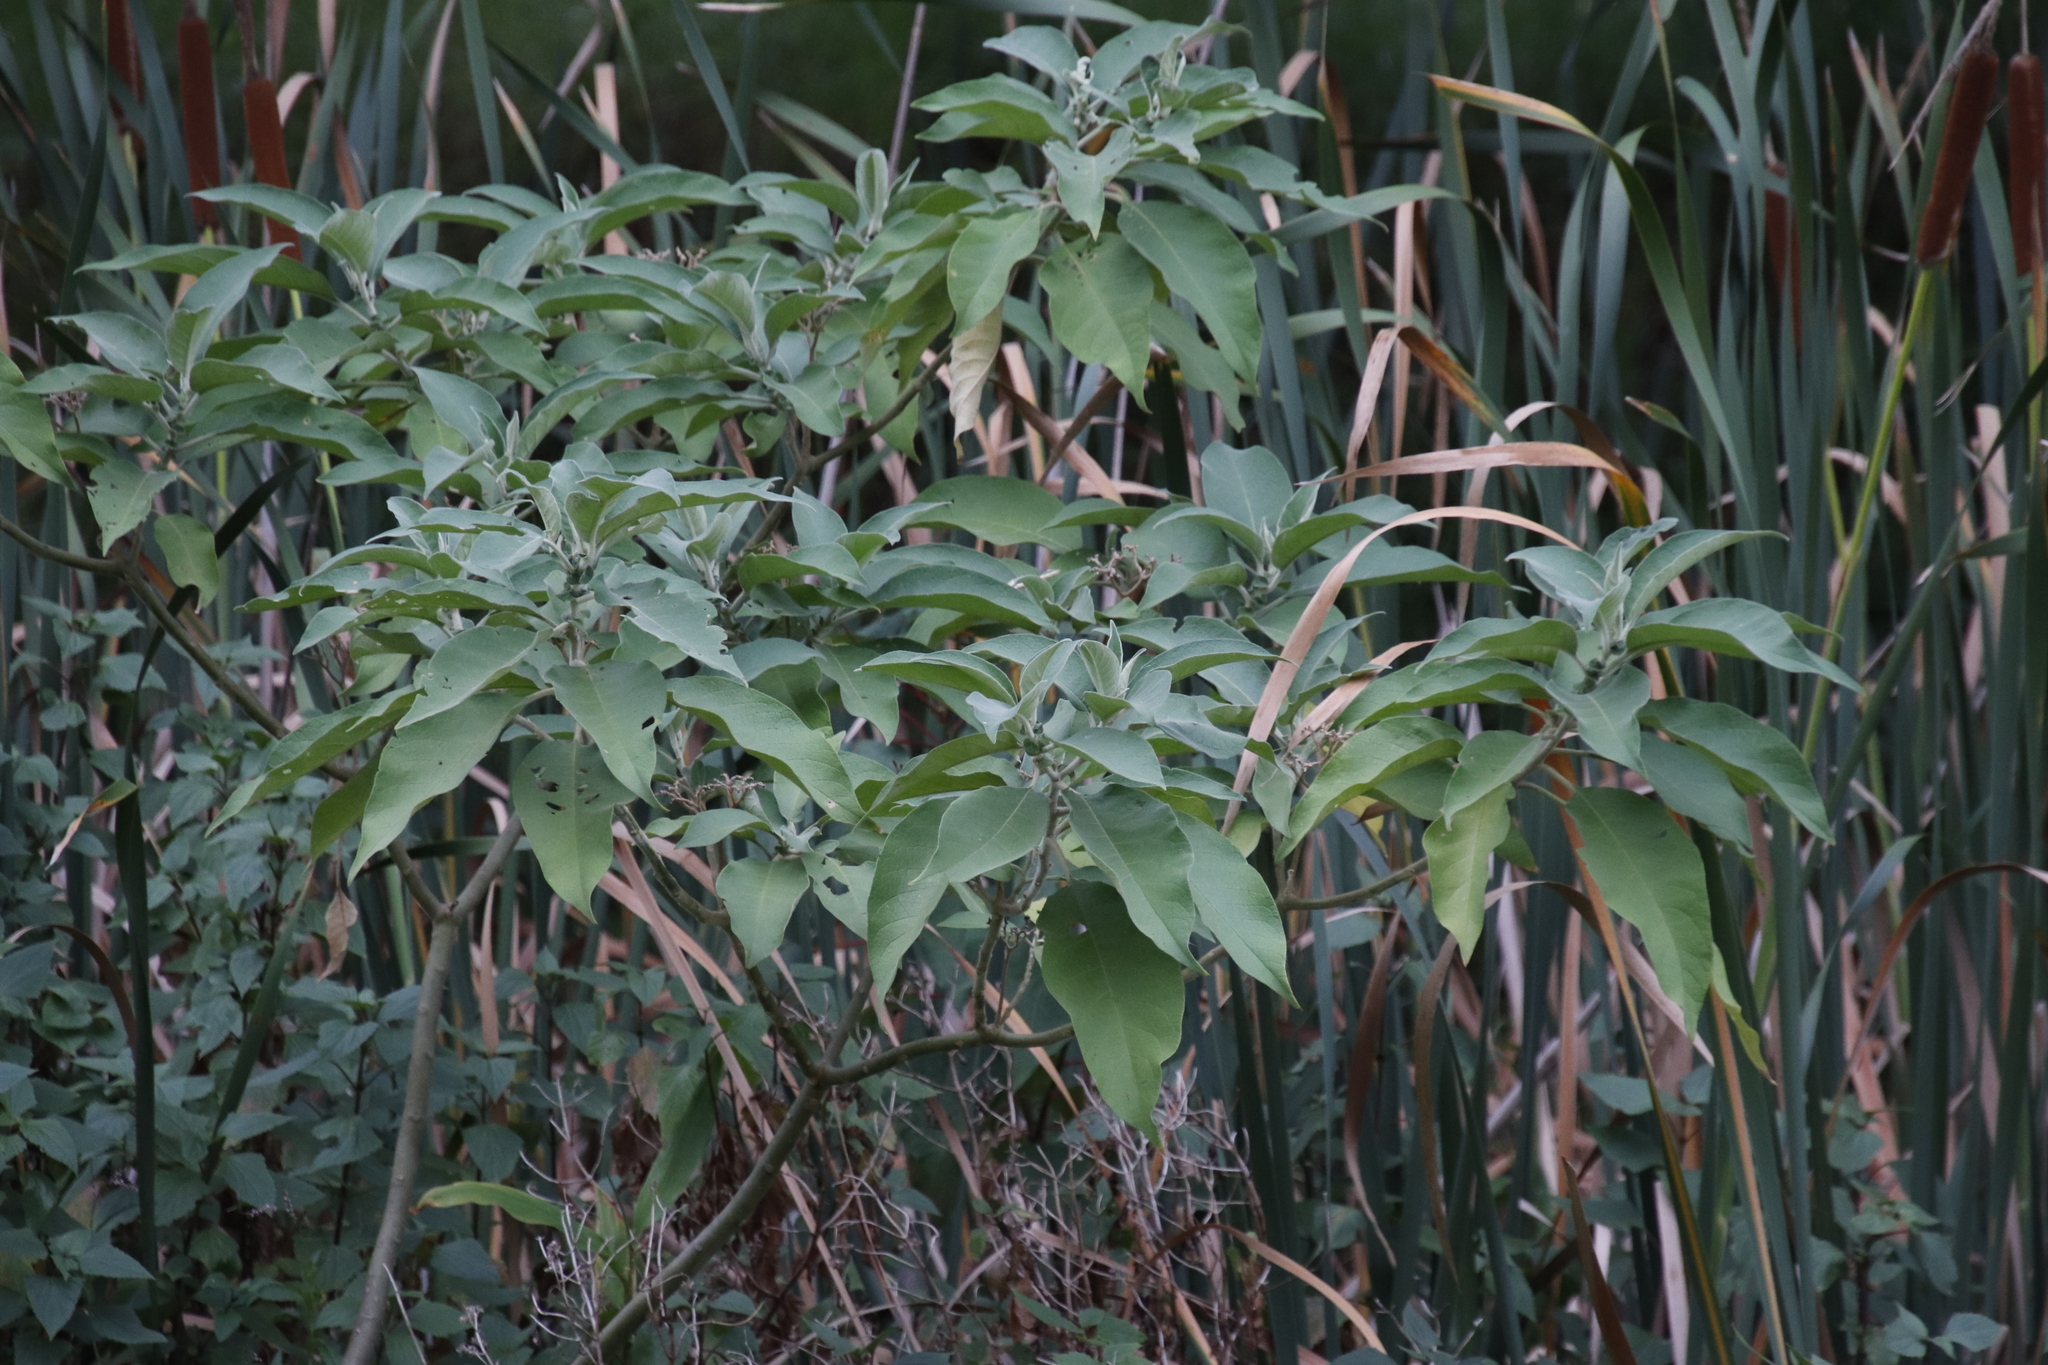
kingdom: Plantae
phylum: Tracheophyta
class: Magnoliopsida
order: Solanales
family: Solanaceae
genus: Solanum
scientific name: Solanum mauritianum
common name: Earleaf nightshade
